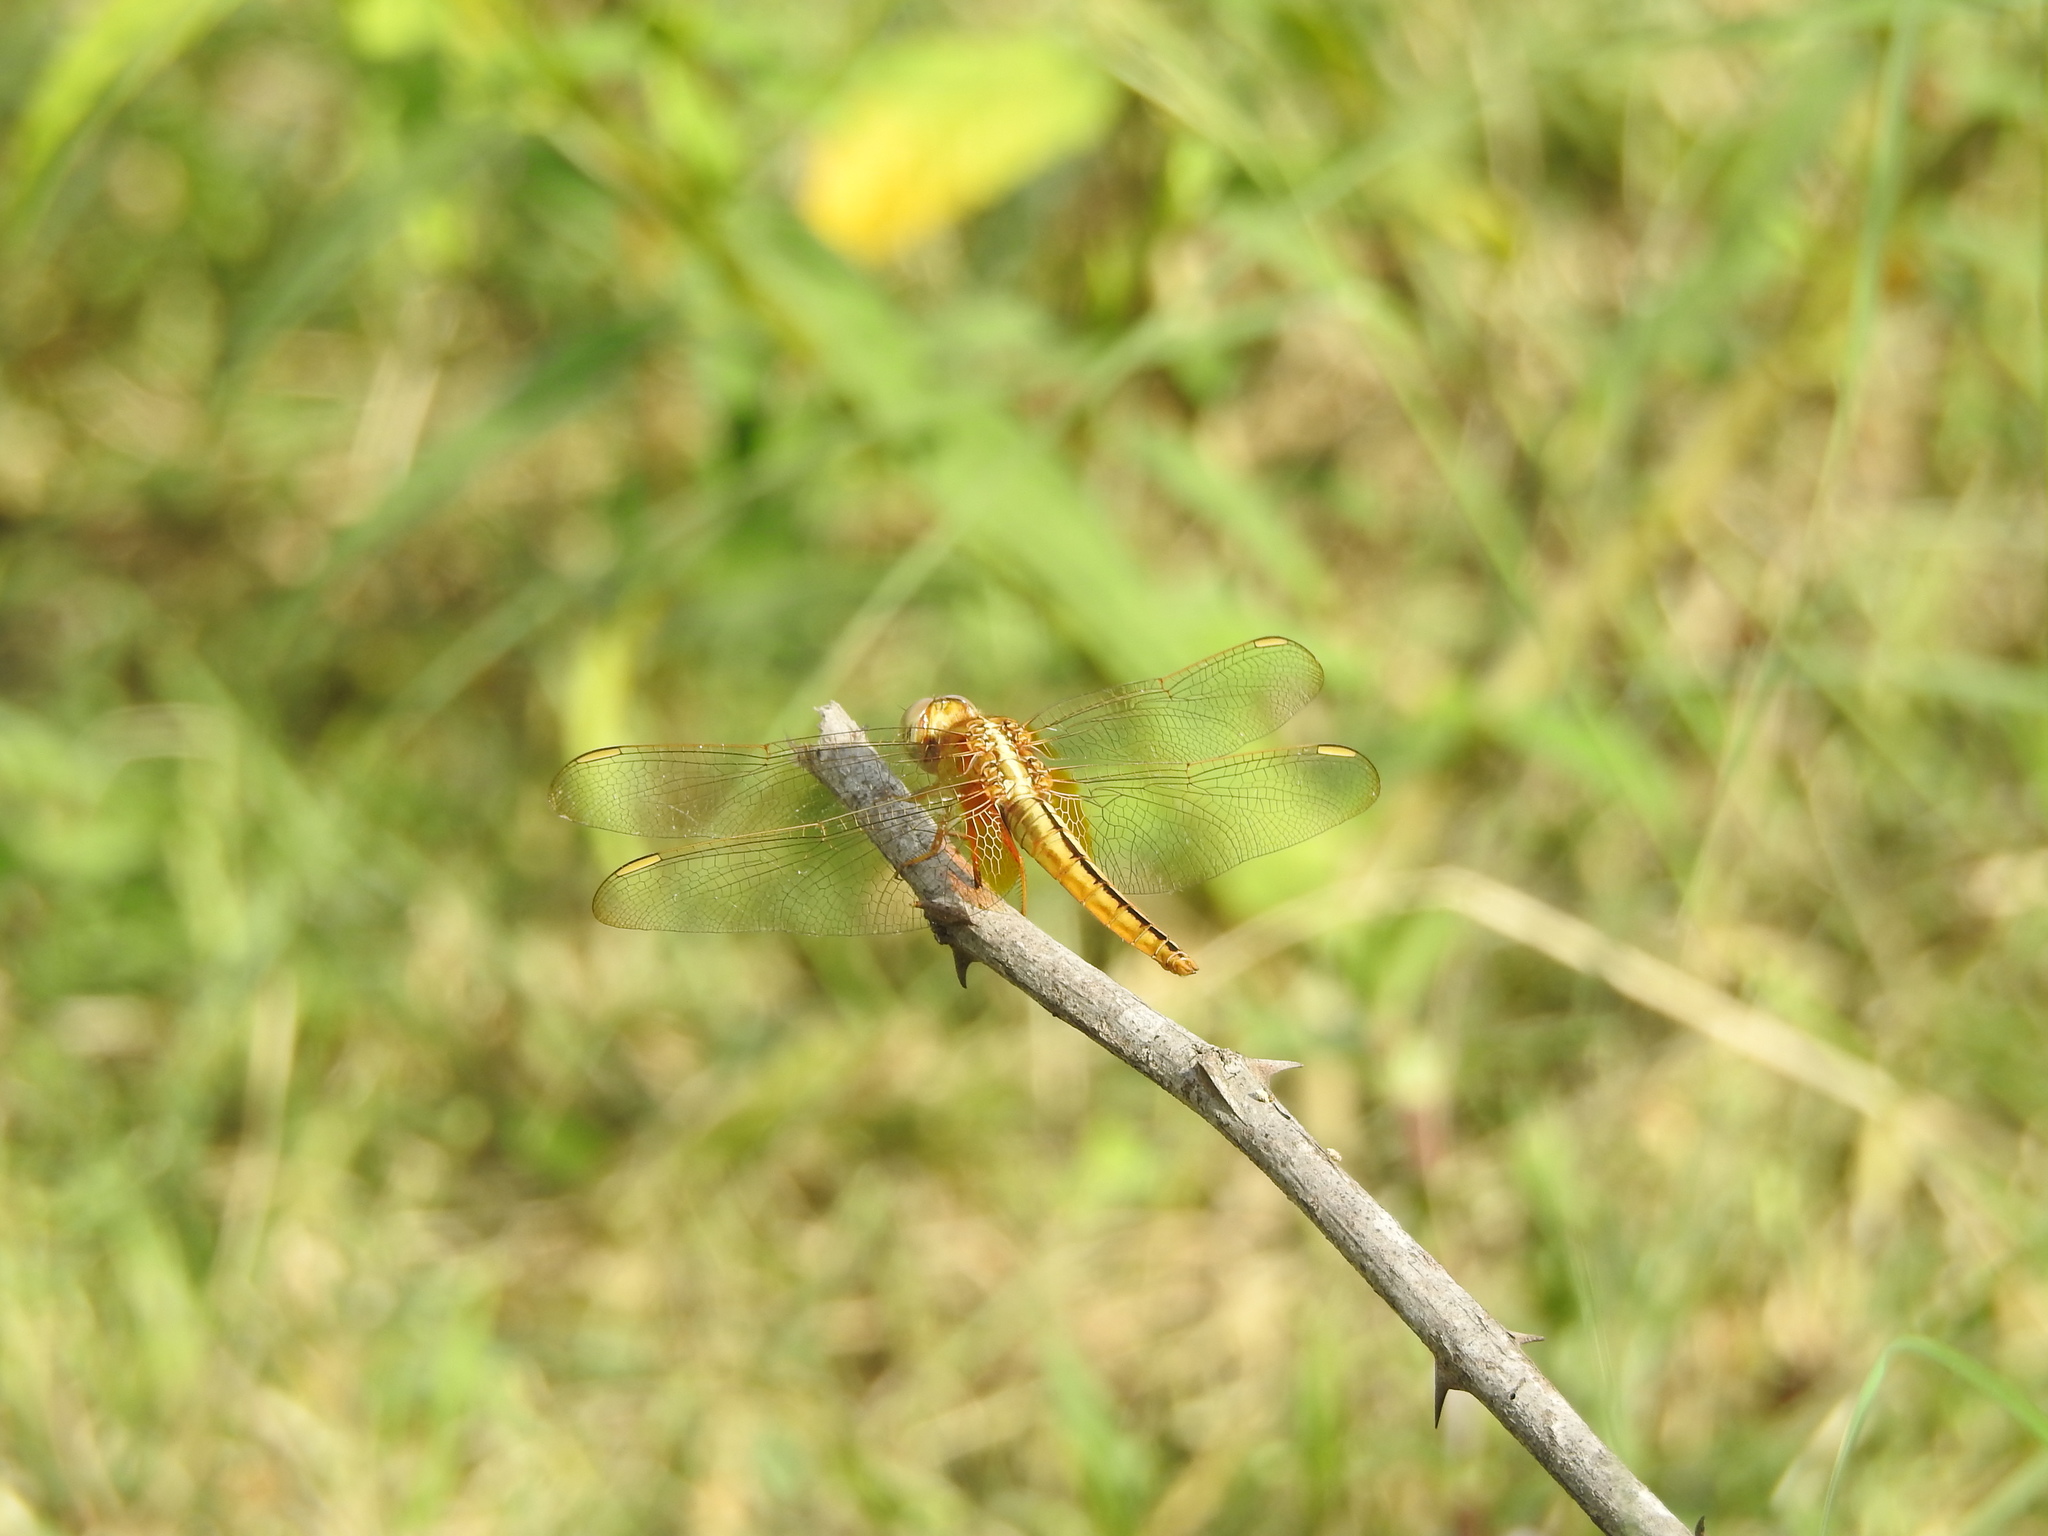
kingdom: Animalia
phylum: Arthropoda
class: Insecta
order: Odonata
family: Libellulidae
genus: Crocothemis
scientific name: Crocothemis servilia
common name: Scarlet skimmer
